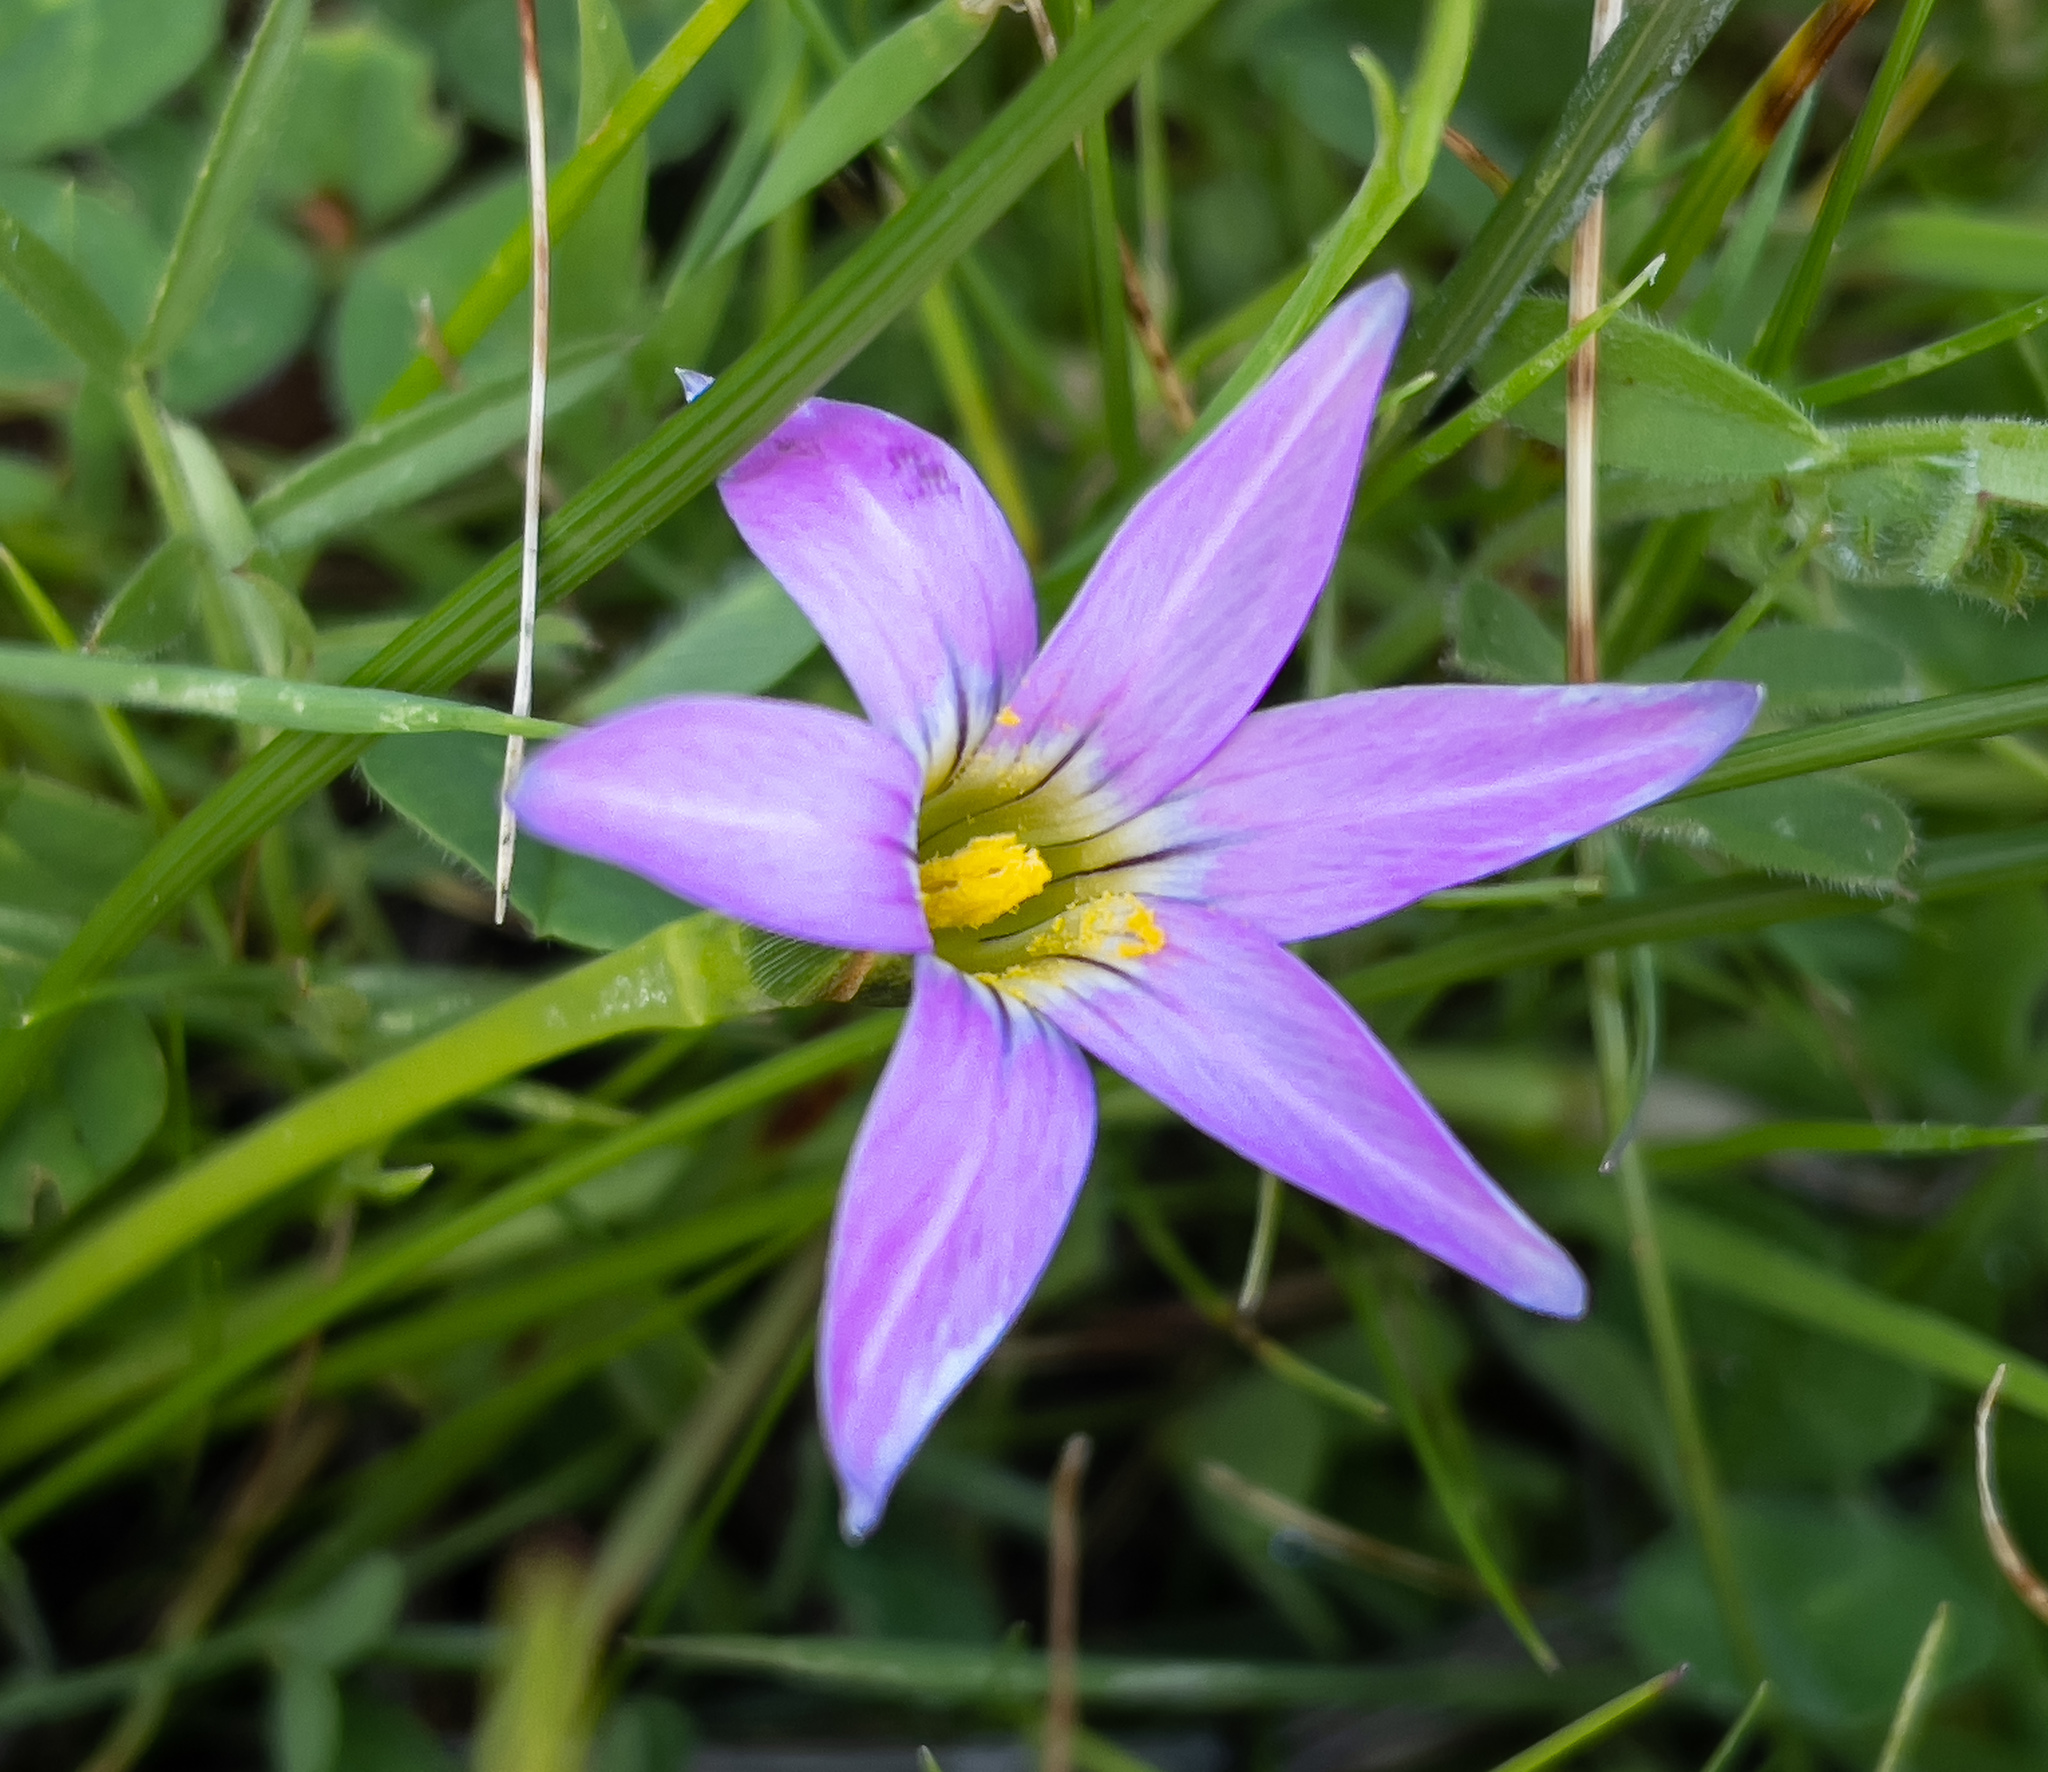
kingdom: Plantae
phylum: Tracheophyta
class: Liliopsida
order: Asparagales
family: Iridaceae
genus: Romulea
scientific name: Romulea rosea
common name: Oniongrass
